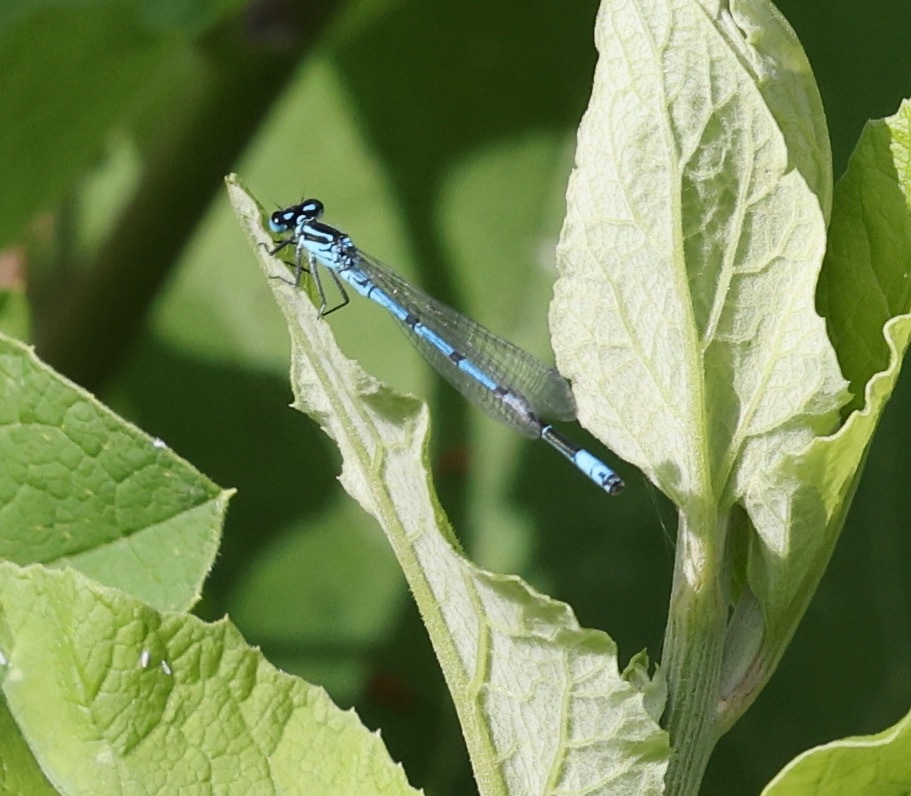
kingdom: Animalia
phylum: Arthropoda
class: Insecta
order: Odonata
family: Coenagrionidae
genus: Coenagrion
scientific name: Coenagrion puella
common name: Azure damselfly
